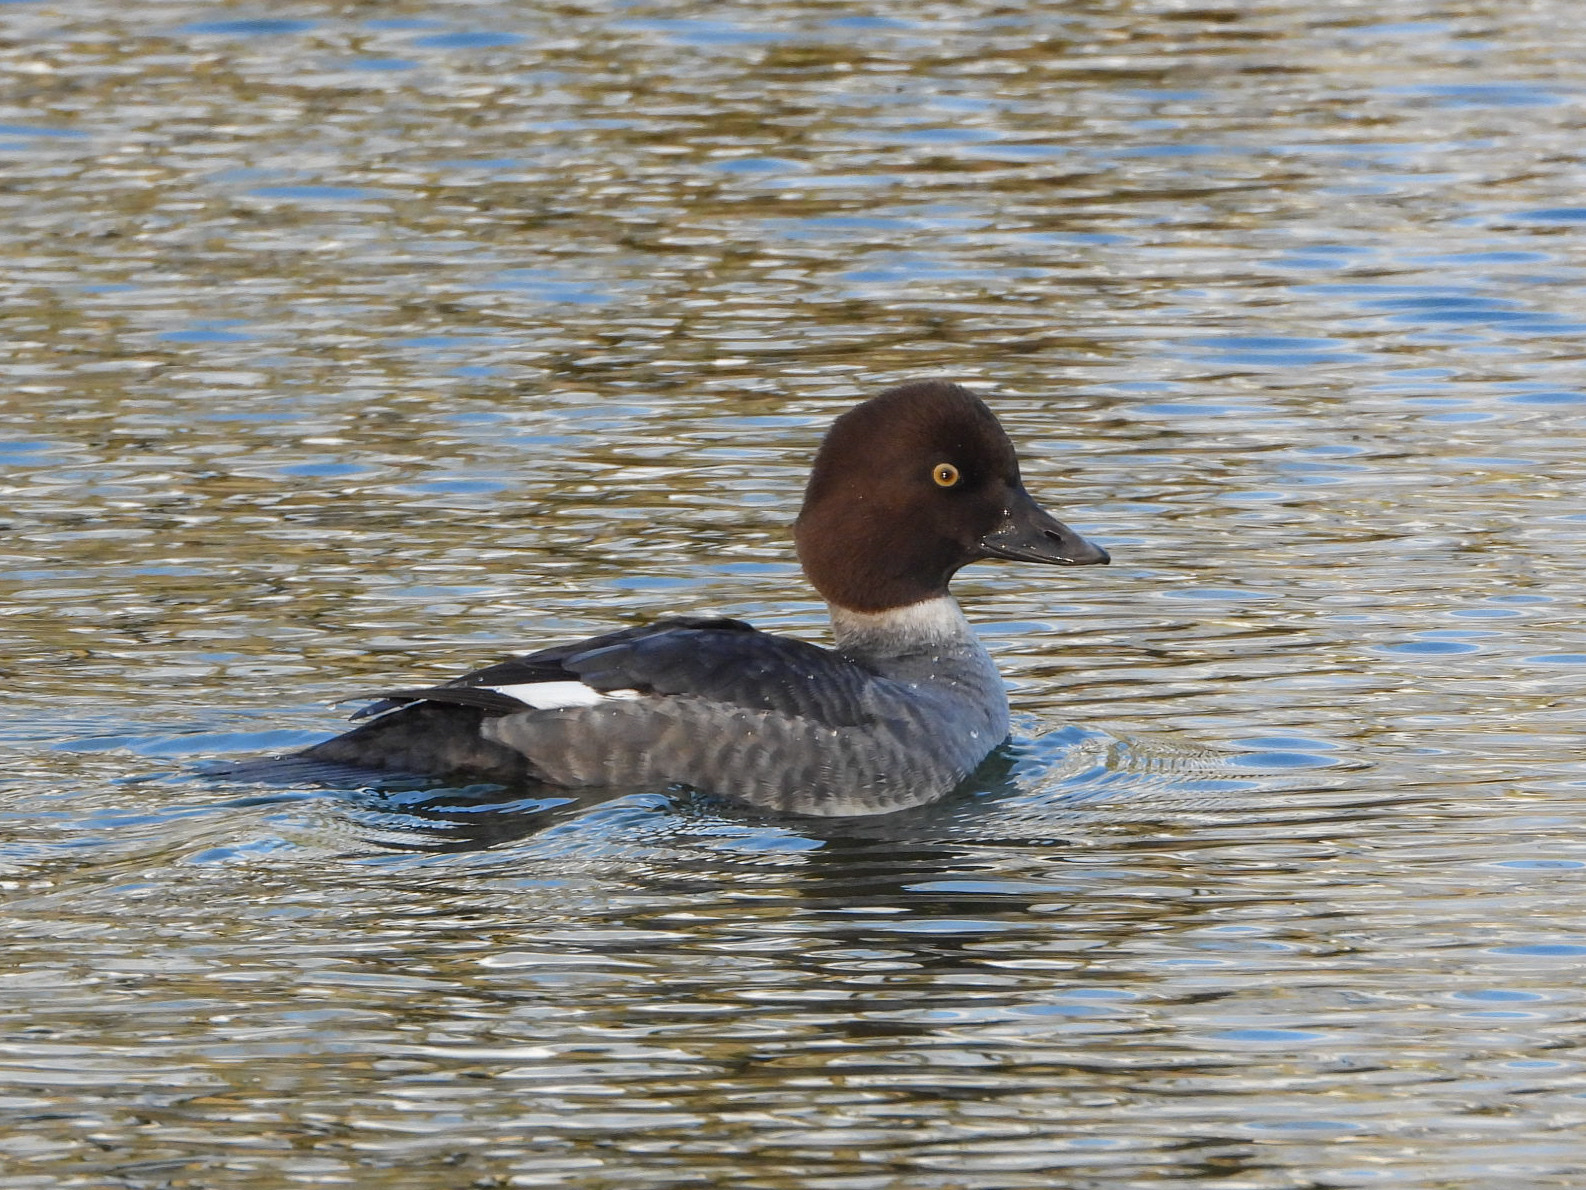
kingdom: Animalia
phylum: Chordata
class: Aves
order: Anseriformes
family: Anatidae
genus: Bucephala
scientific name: Bucephala clangula
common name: Common goldeneye
